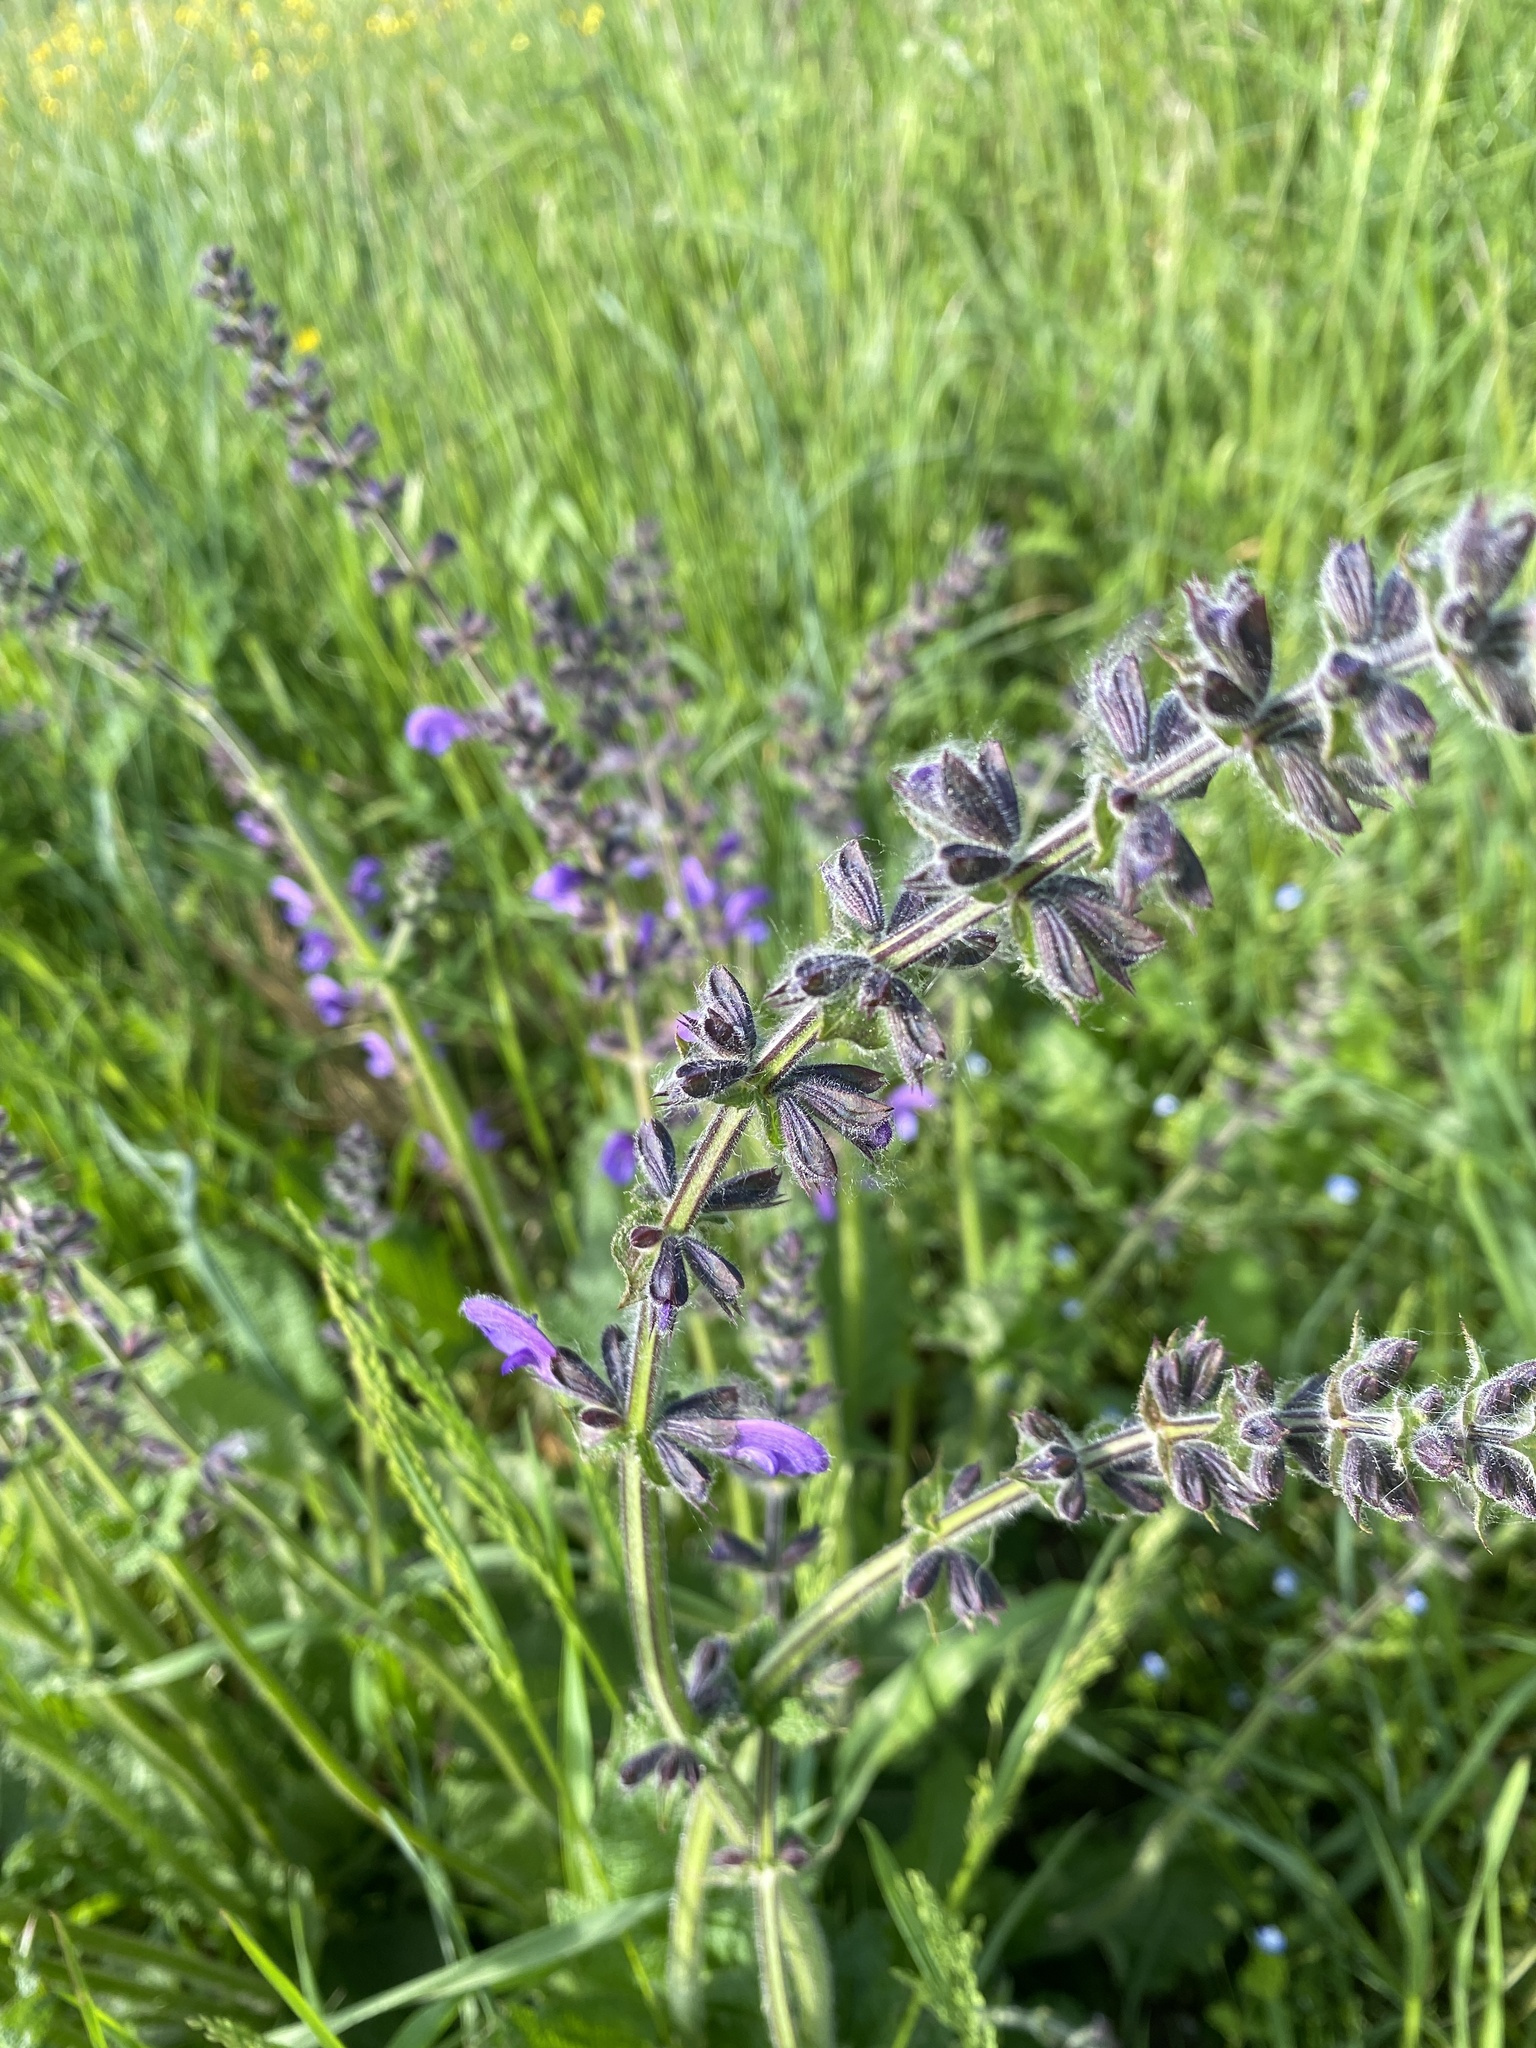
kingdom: Plantae
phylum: Tracheophyta
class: Magnoliopsida
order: Lamiales
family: Lamiaceae
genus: Salvia
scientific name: Salvia pratensis
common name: Meadow sage
